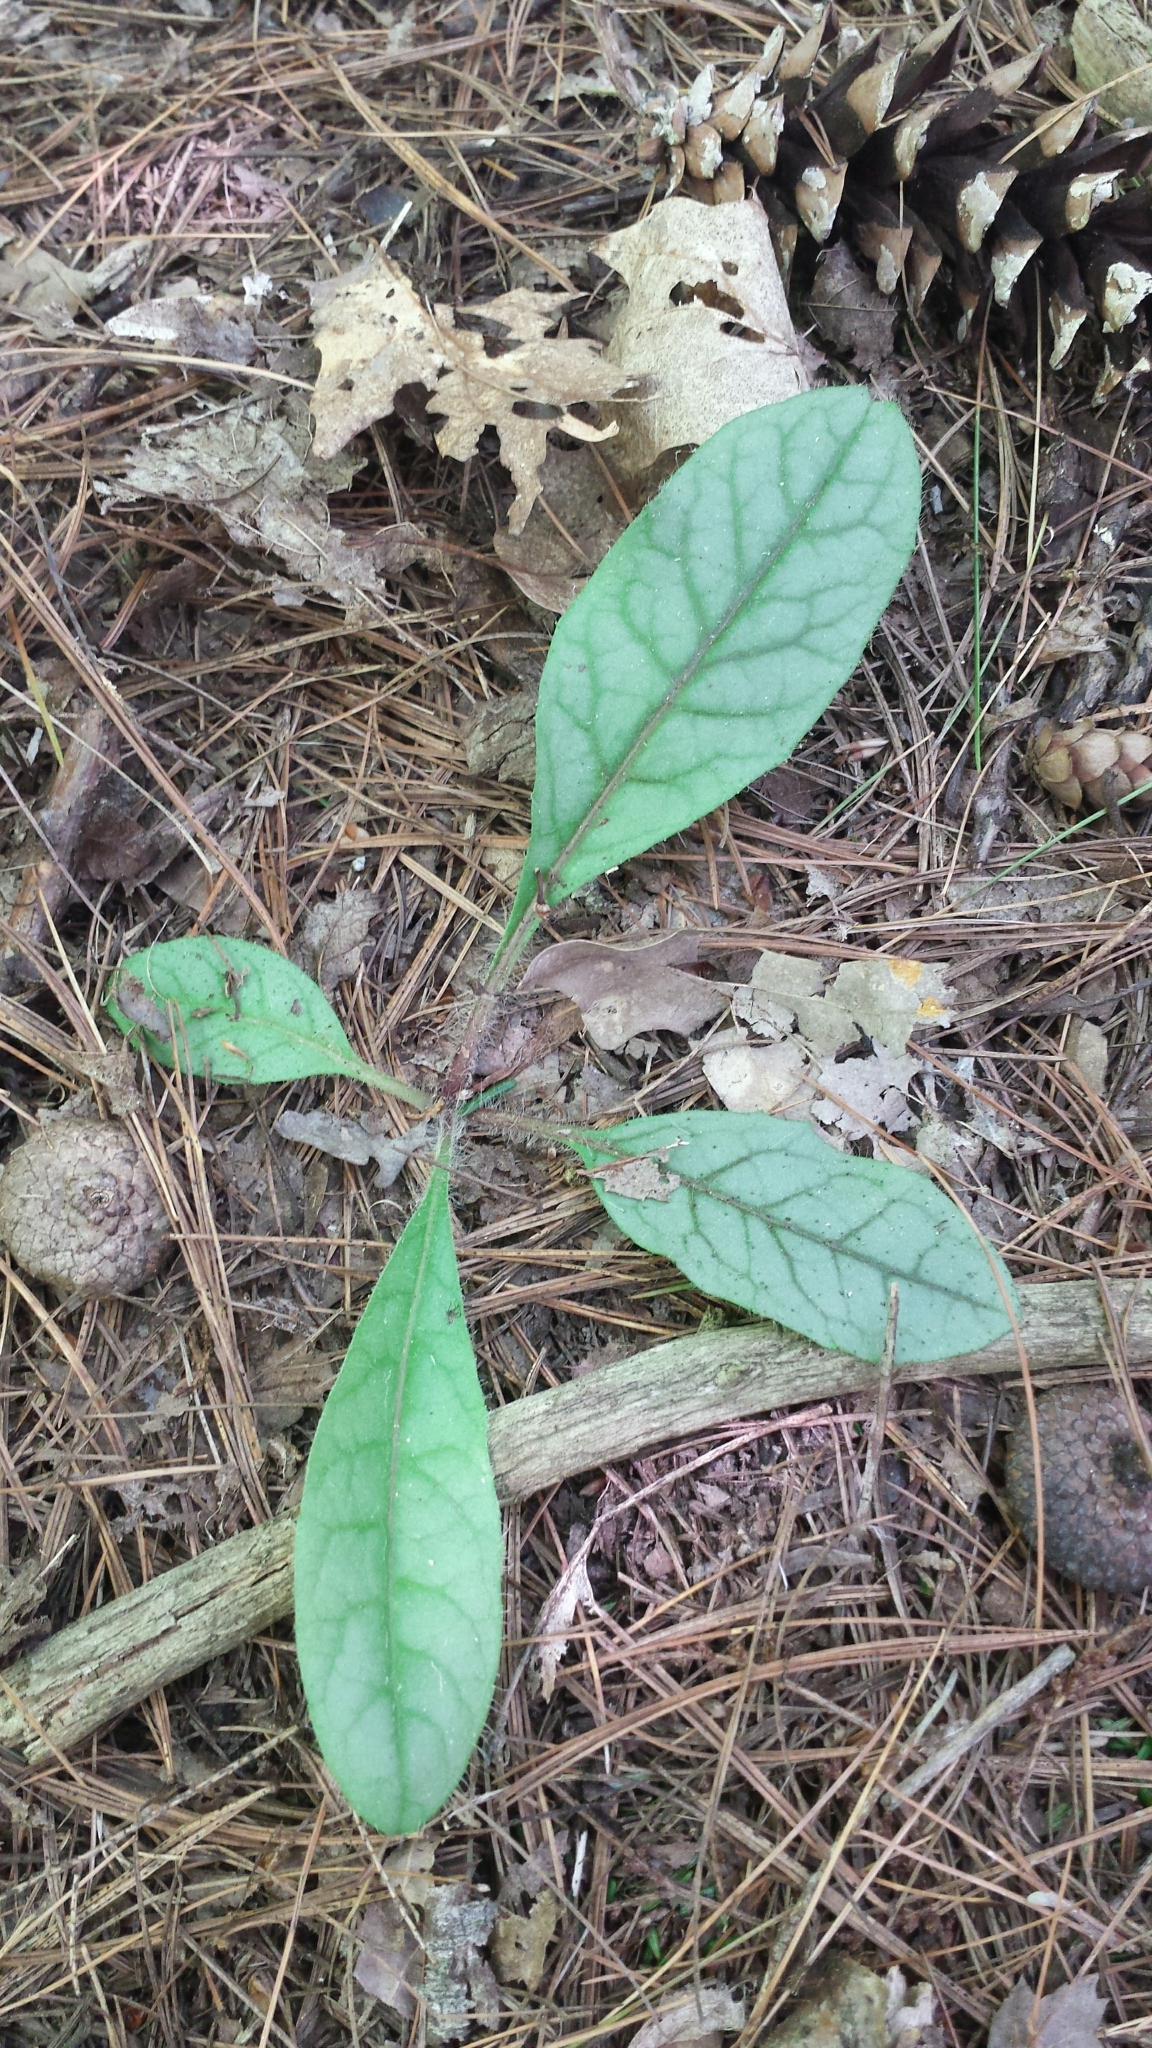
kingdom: Plantae
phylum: Tracheophyta
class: Magnoliopsida
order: Asterales
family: Asteraceae
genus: Hieracium
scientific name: Hieracium venosum
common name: Rattlesnake hawkweed
